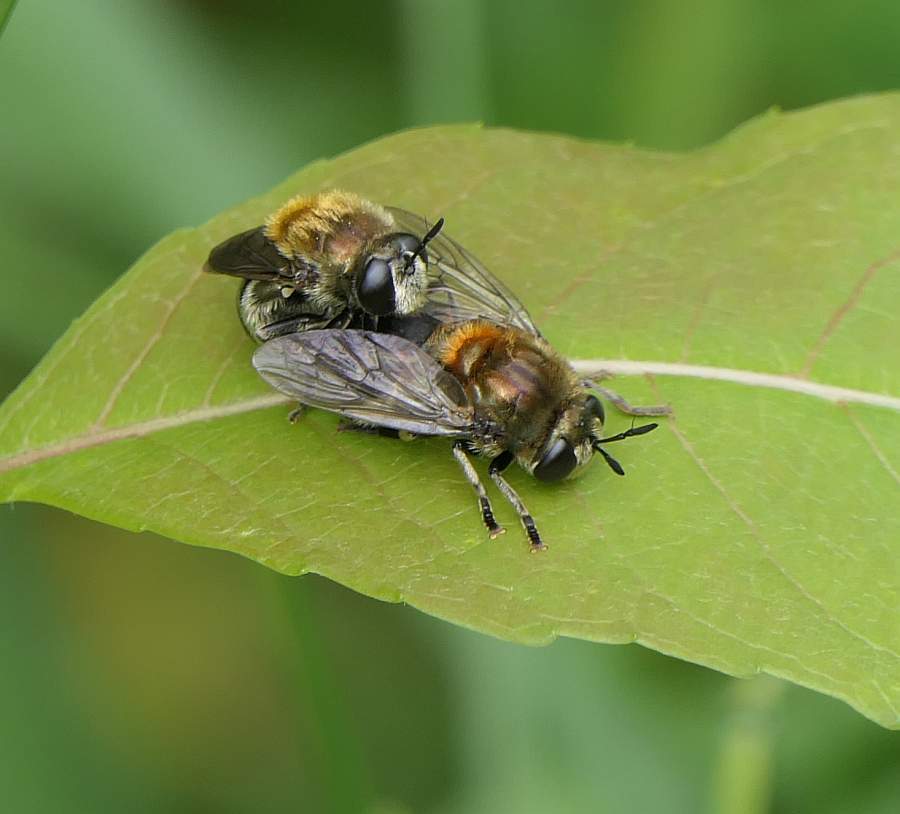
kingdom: Animalia
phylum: Arthropoda
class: Insecta
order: Diptera
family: Syrphidae
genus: Microdon
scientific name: Microdon manitobensis
